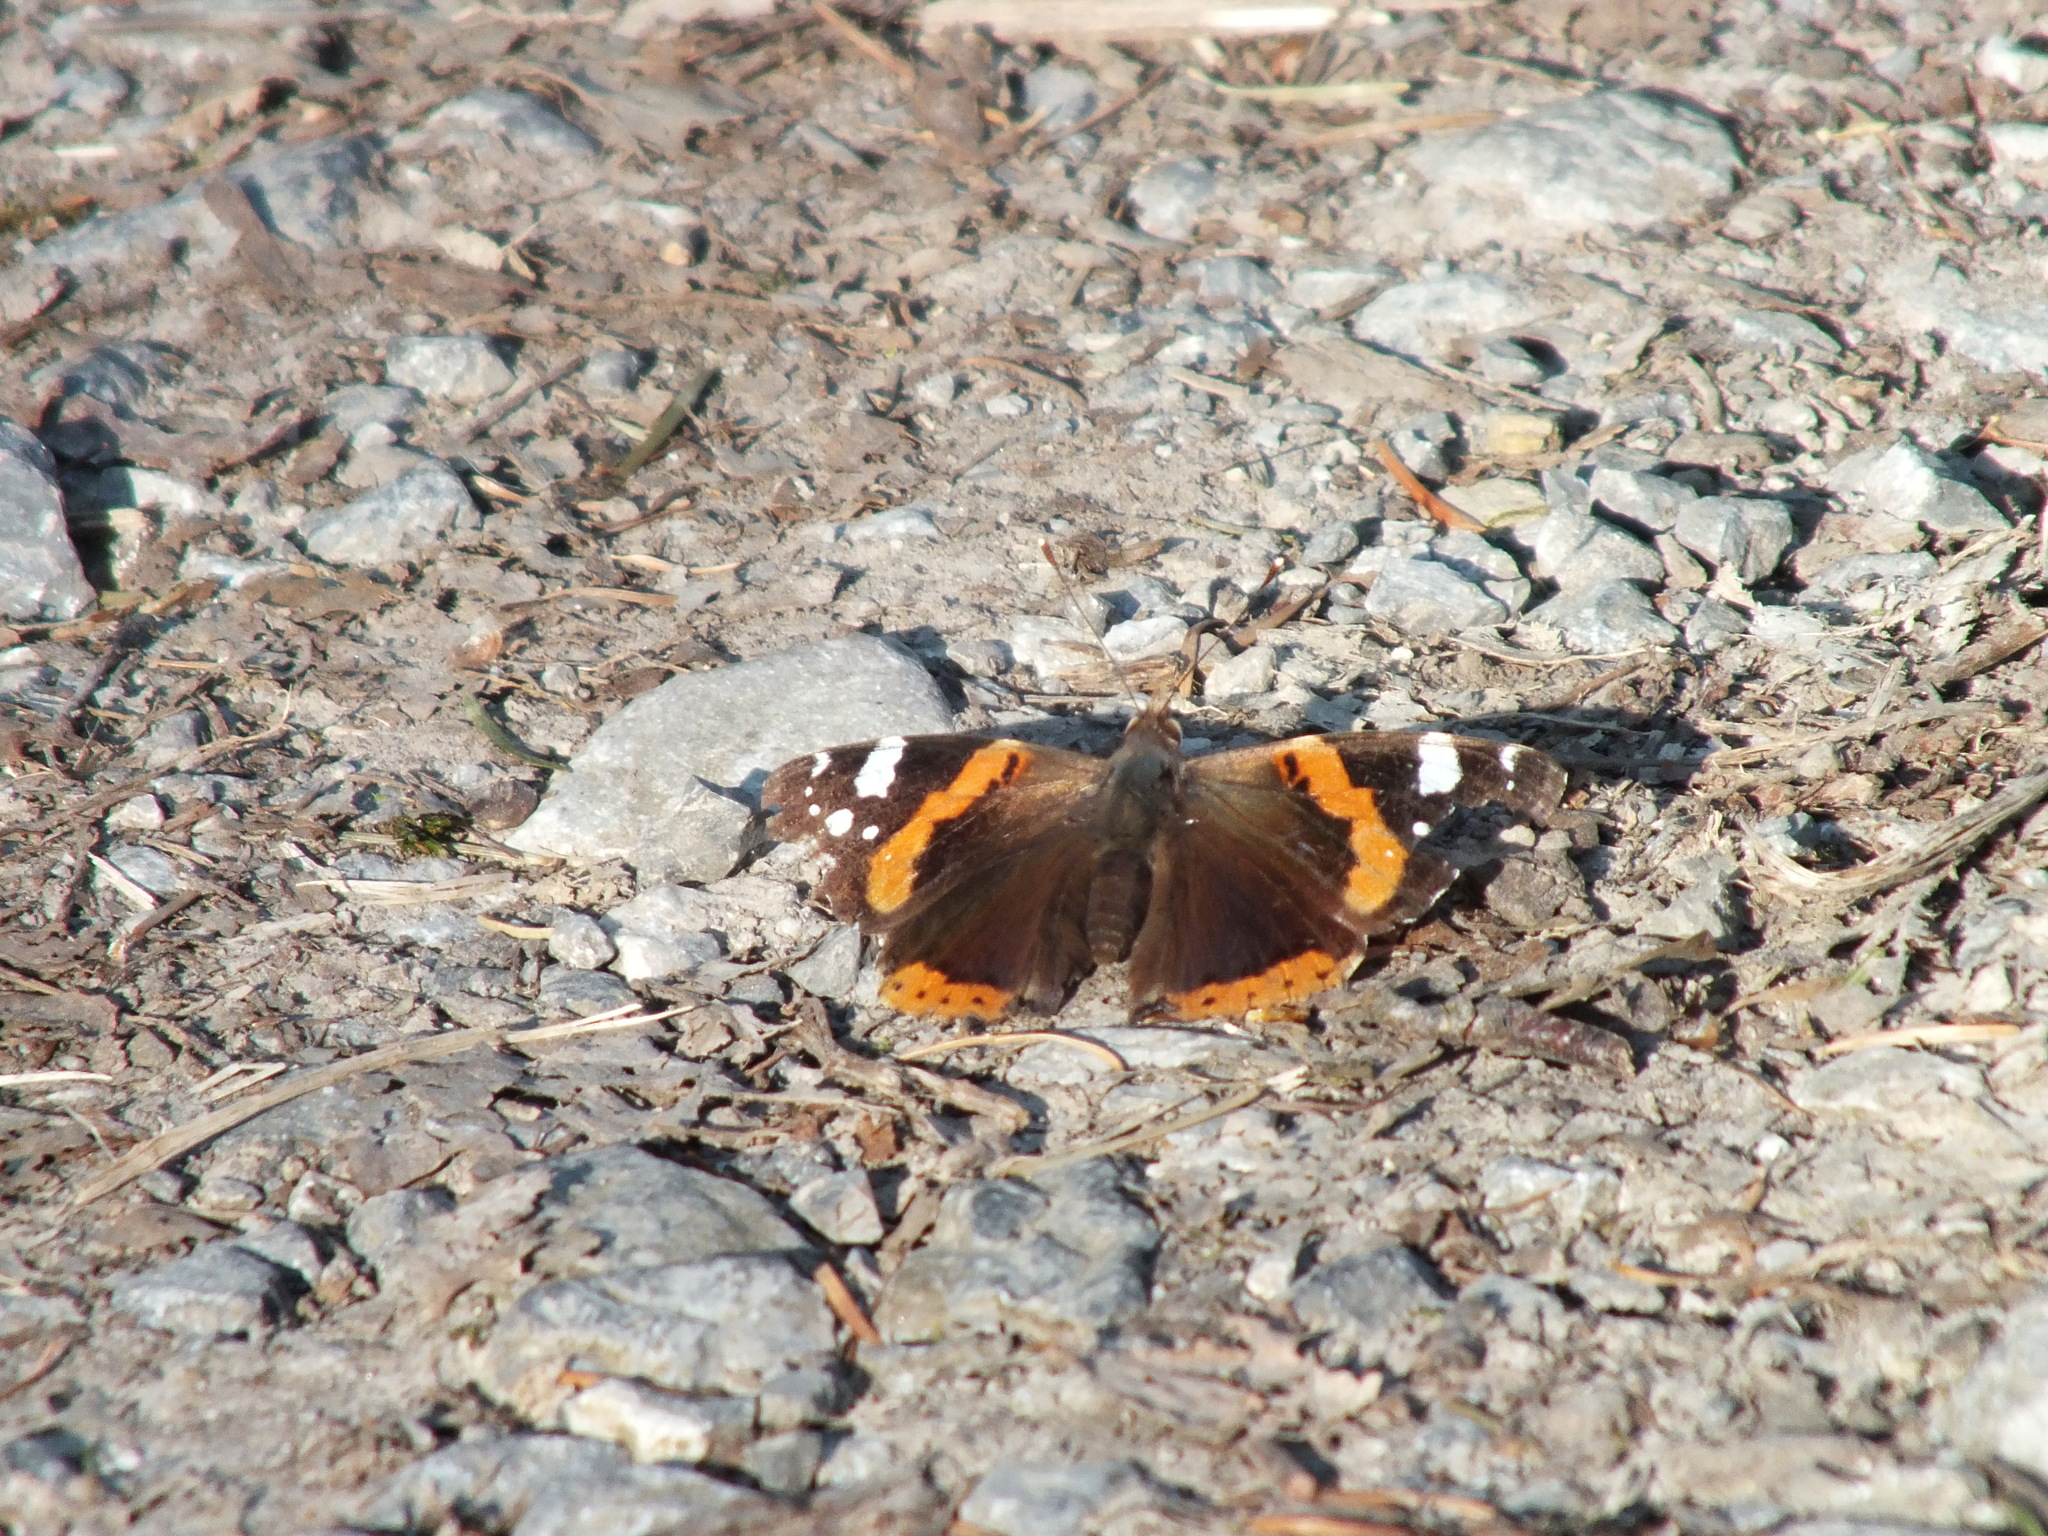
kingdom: Animalia
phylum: Arthropoda
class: Insecta
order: Lepidoptera
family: Nymphalidae
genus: Vanessa
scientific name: Vanessa atalanta
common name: Red admiral
